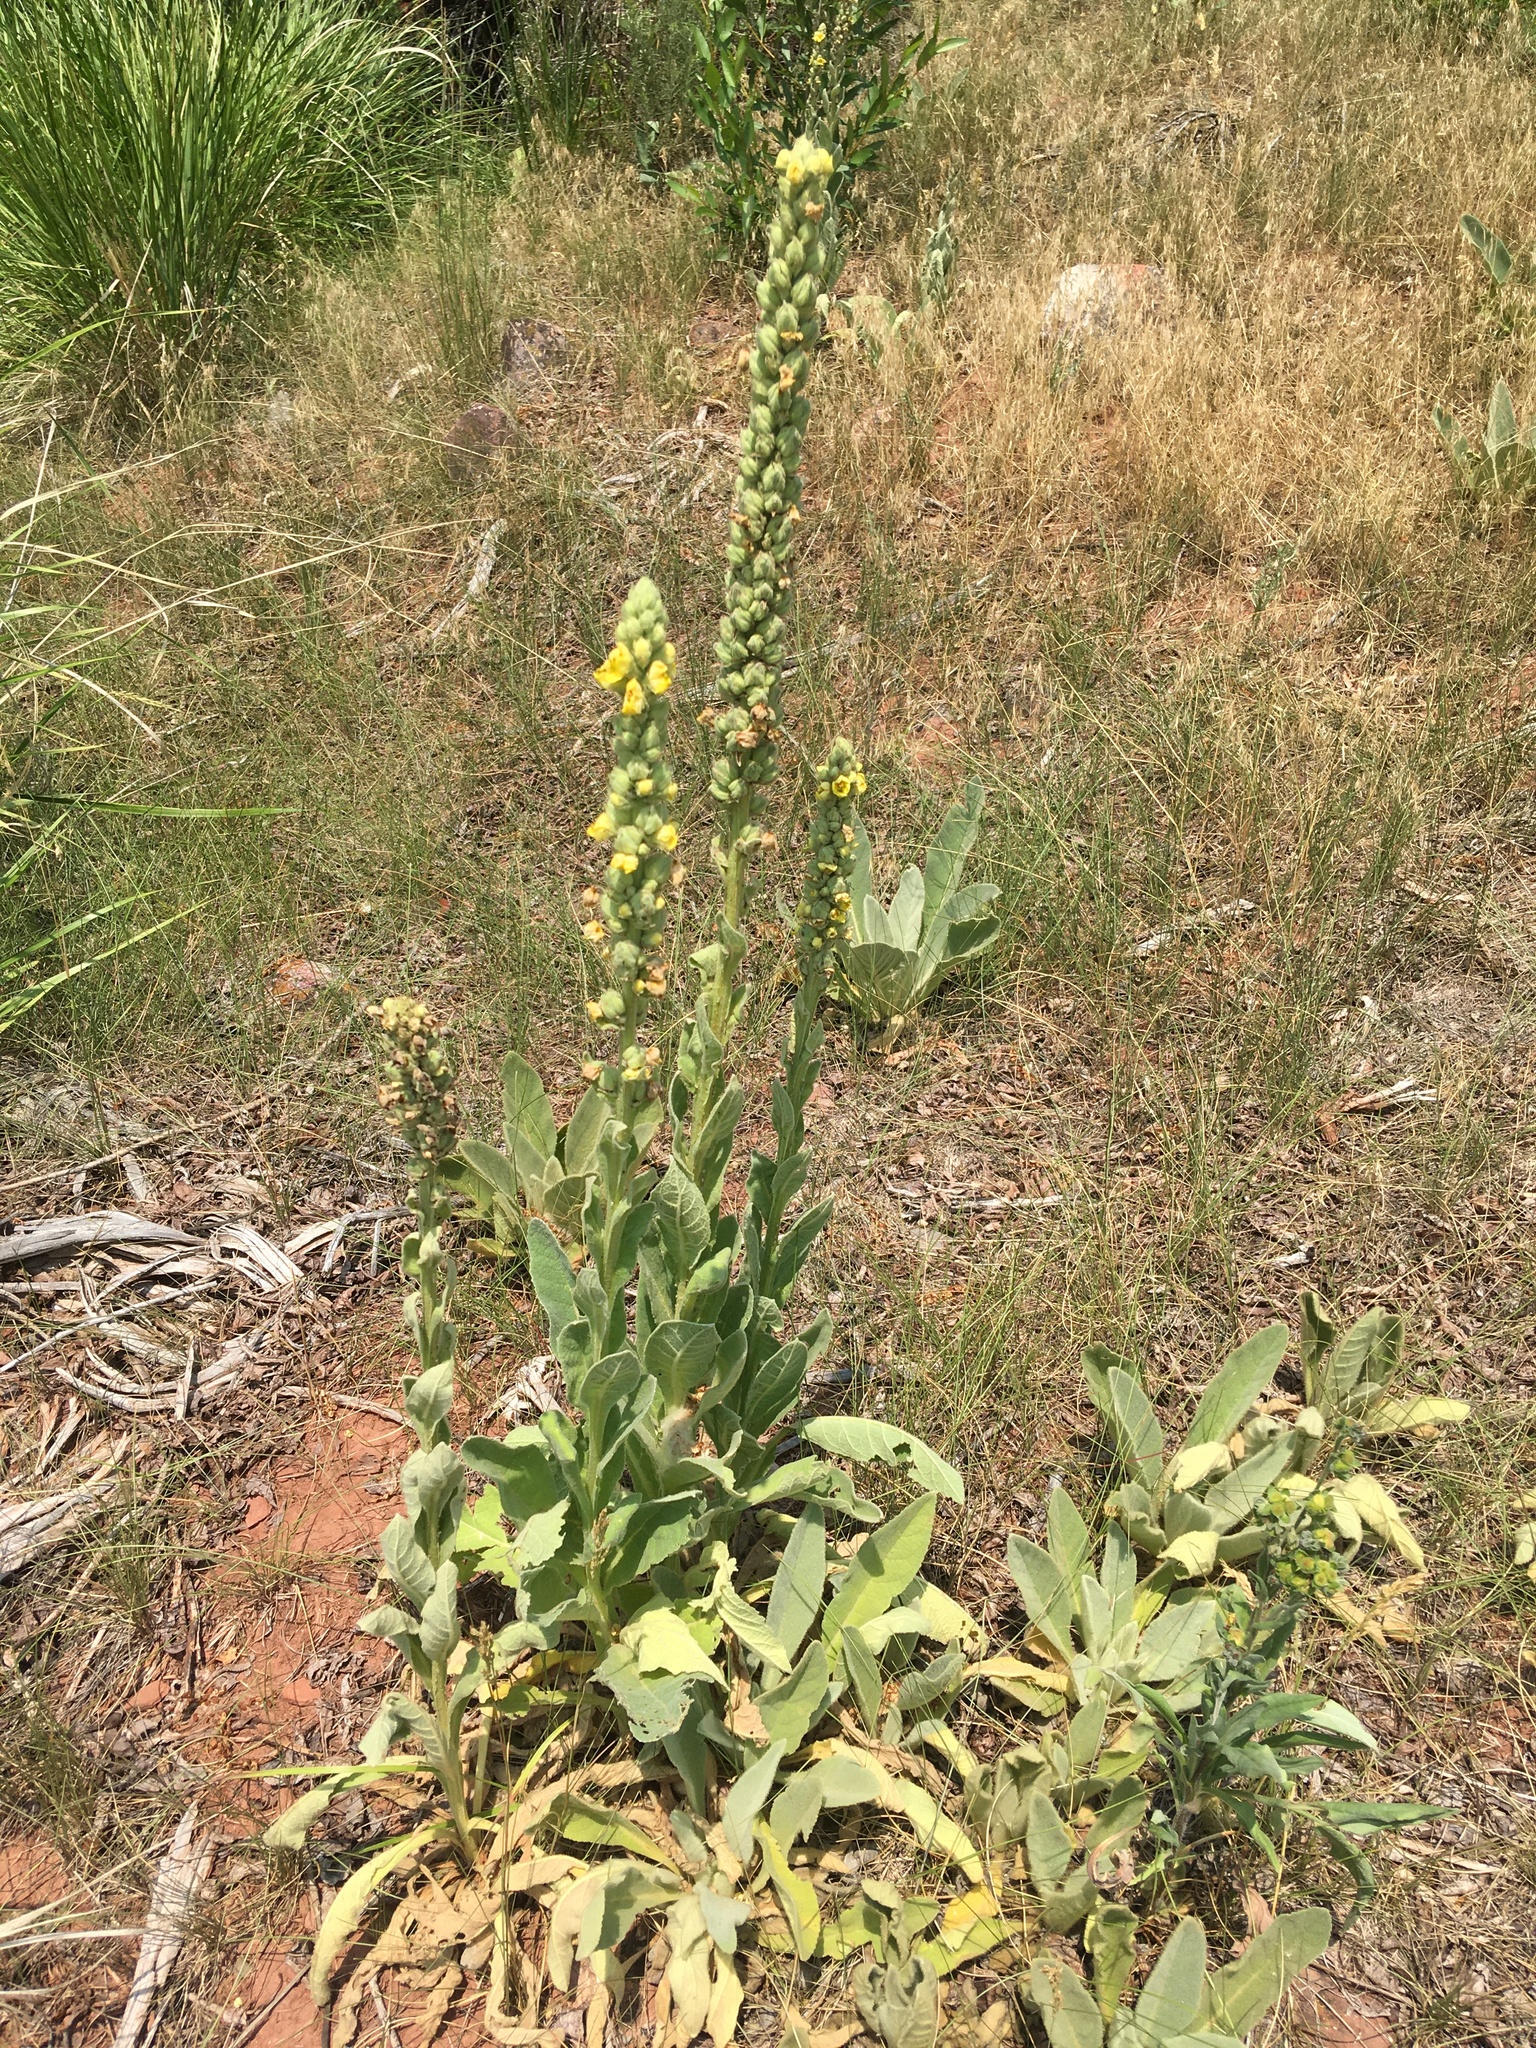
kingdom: Plantae
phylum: Tracheophyta
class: Magnoliopsida
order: Lamiales
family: Scrophulariaceae
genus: Verbascum
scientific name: Verbascum thapsus
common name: Common mullein
